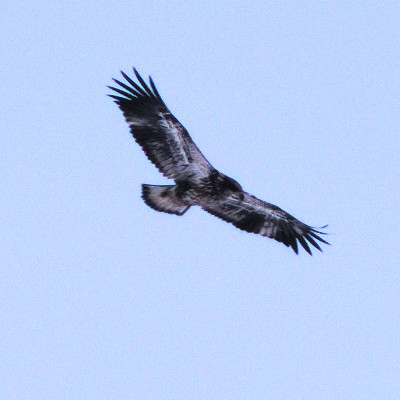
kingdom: Animalia
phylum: Chordata
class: Aves
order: Accipitriformes
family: Accipitridae
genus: Haliaeetus
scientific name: Haliaeetus leucocephalus
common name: Bald eagle
